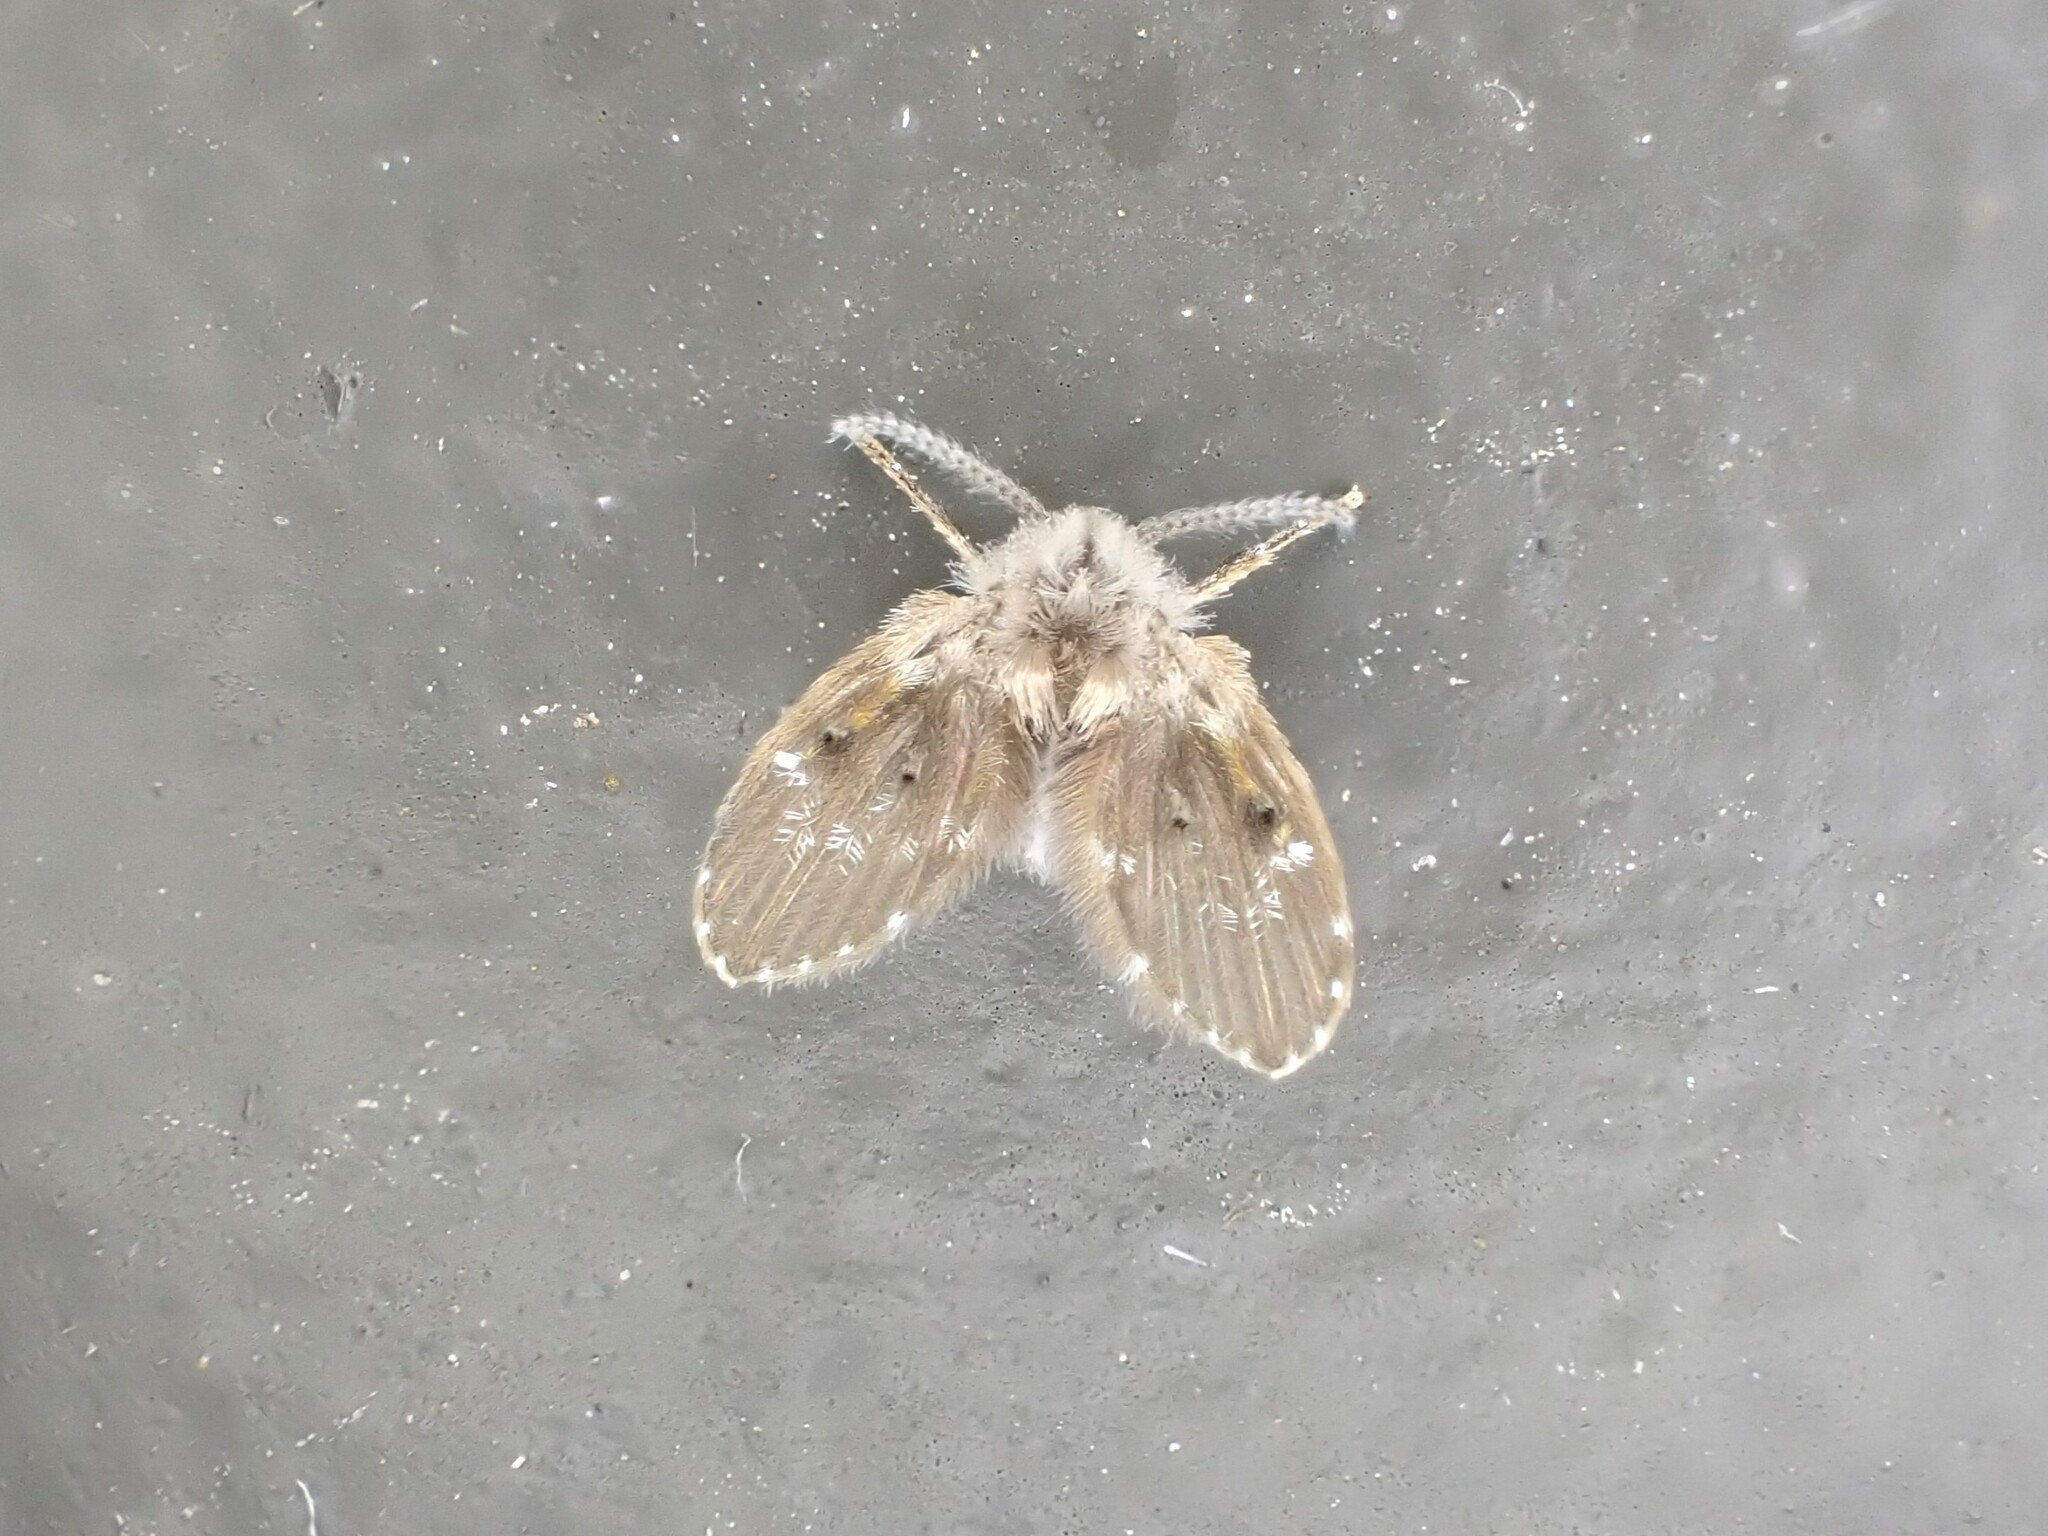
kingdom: Animalia
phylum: Arthropoda
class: Insecta
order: Diptera
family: Psychodidae
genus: Clogmia
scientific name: Clogmia albipunctatus
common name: White-spotted moth fly
